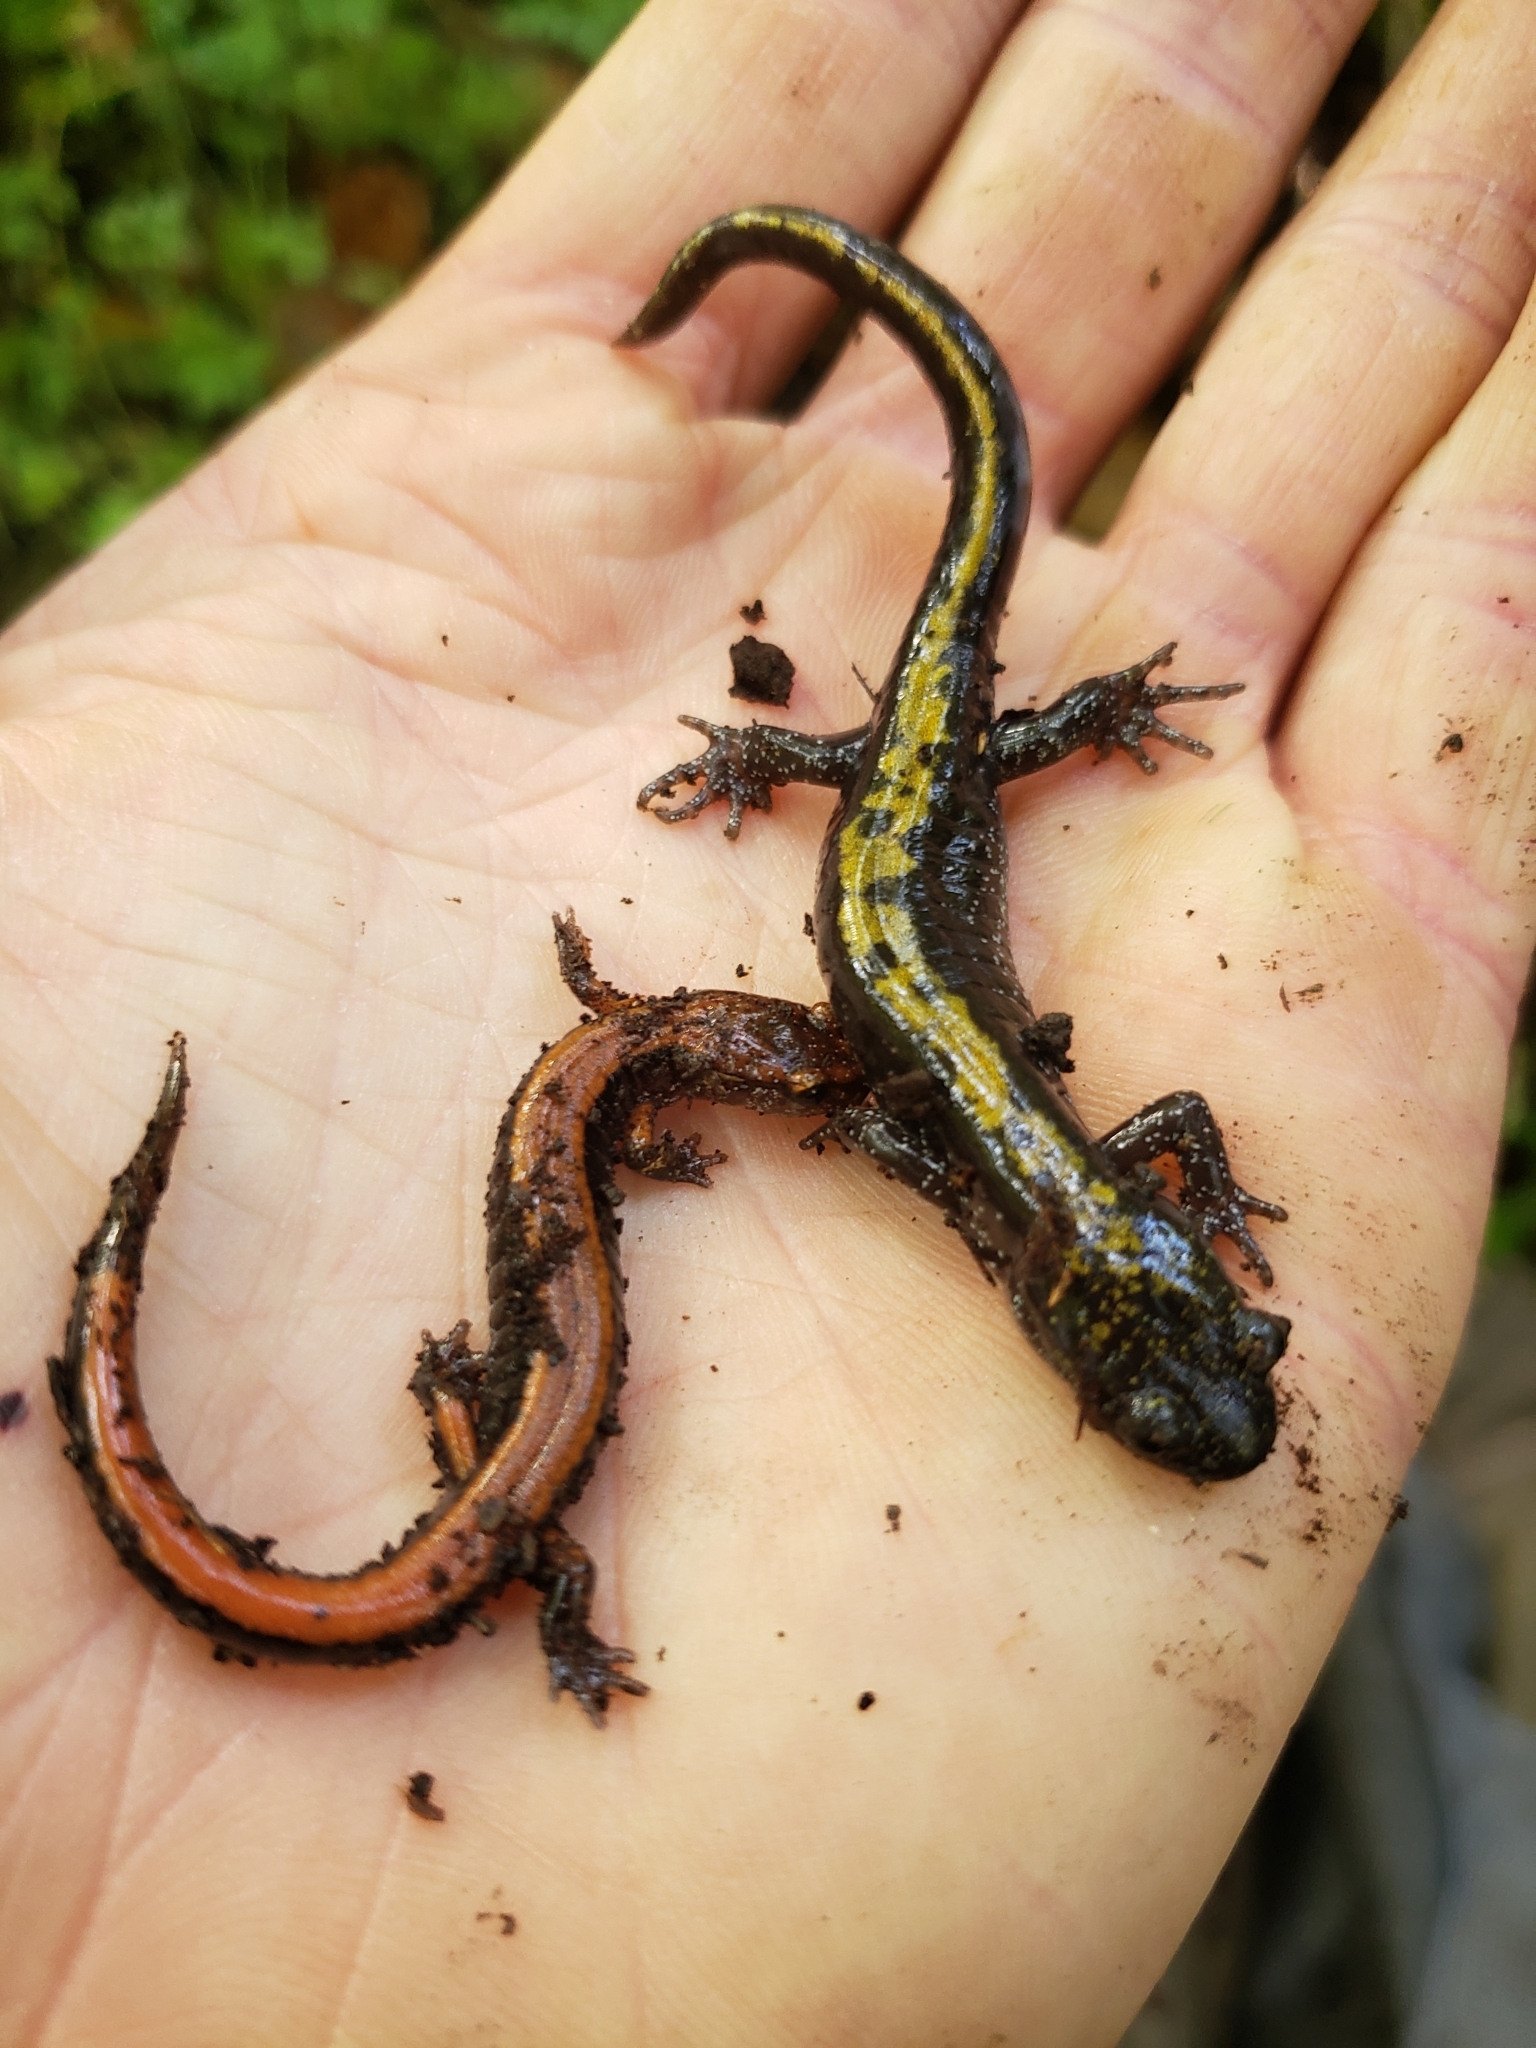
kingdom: Animalia
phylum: Chordata
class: Amphibia
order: Caudata
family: Ambystomatidae
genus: Ambystoma
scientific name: Ambystoma macrodactylum
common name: Long-toed salamander
